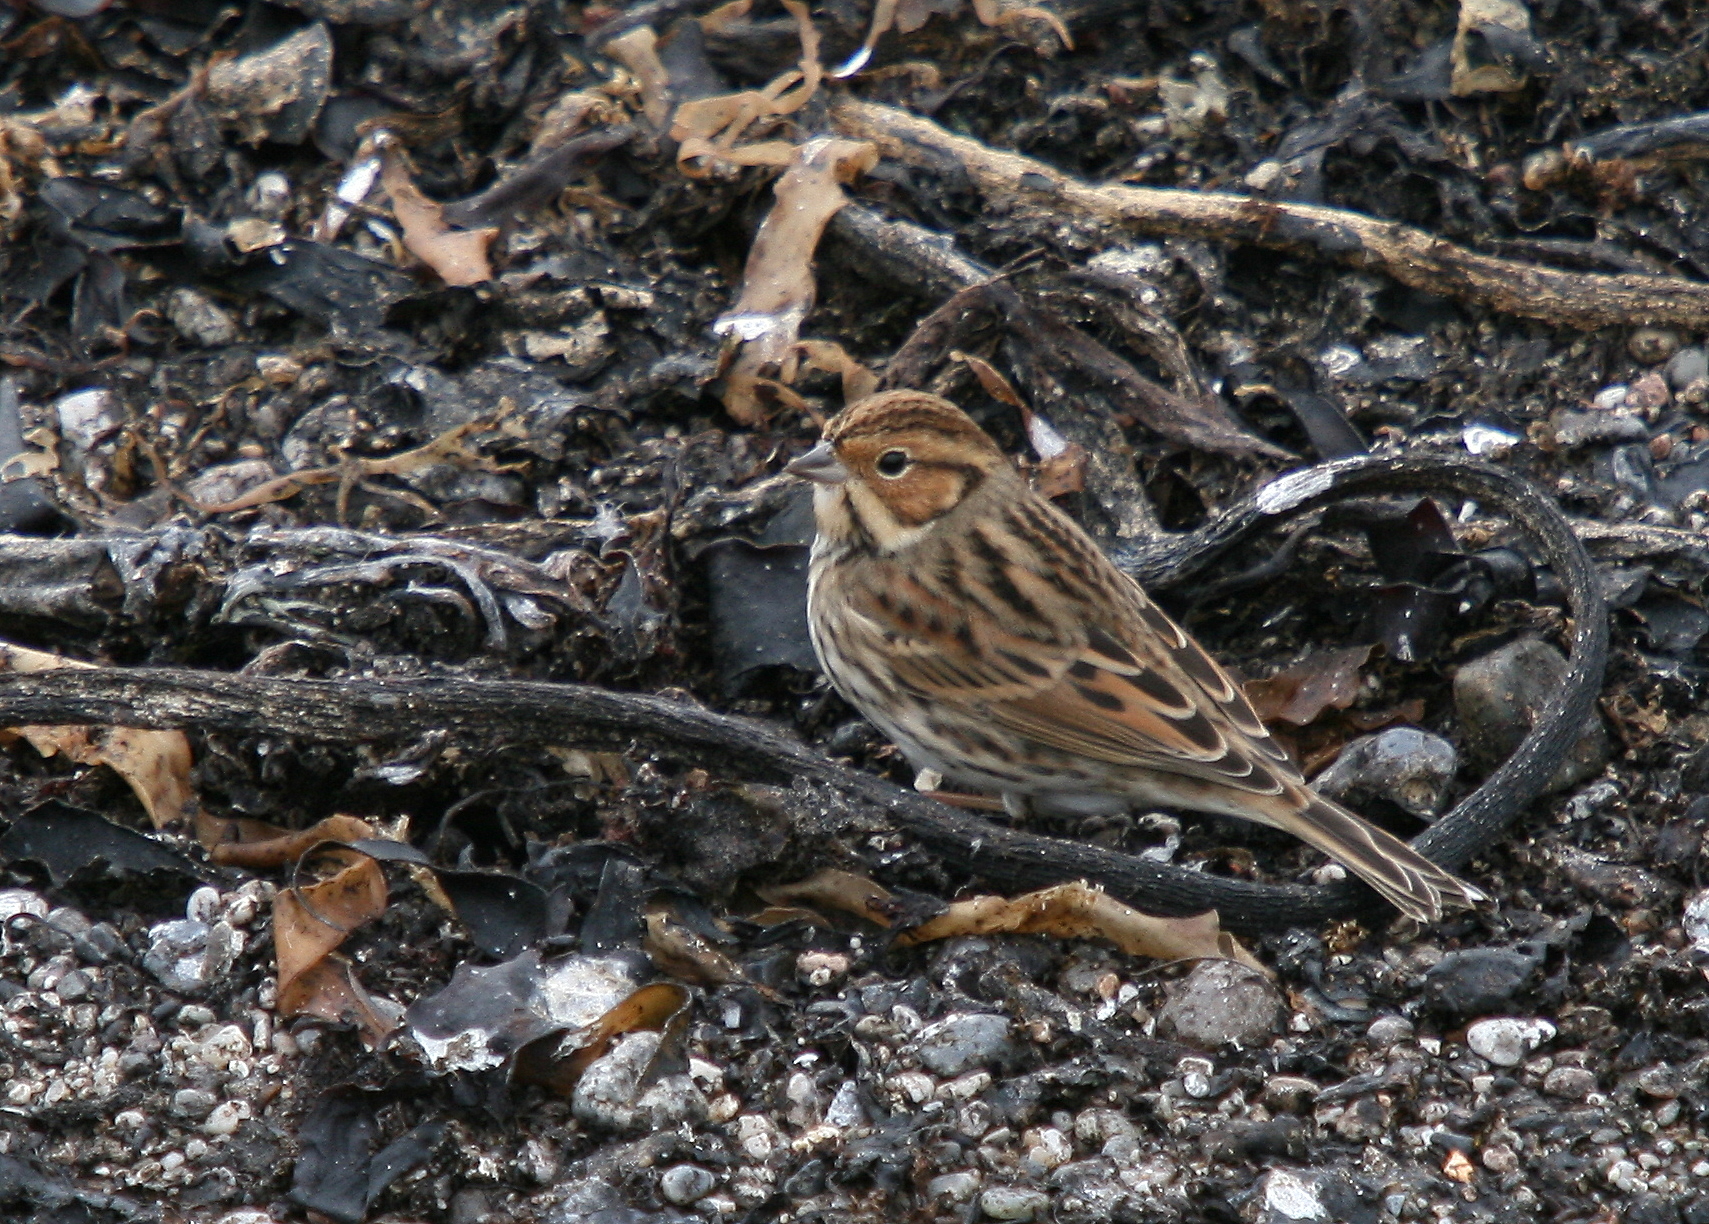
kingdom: Animalia
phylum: Chordata
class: Aves
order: Passeriformes
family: Emberizidae
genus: Emberiza
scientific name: Emberiza pusilla
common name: Little bunting
